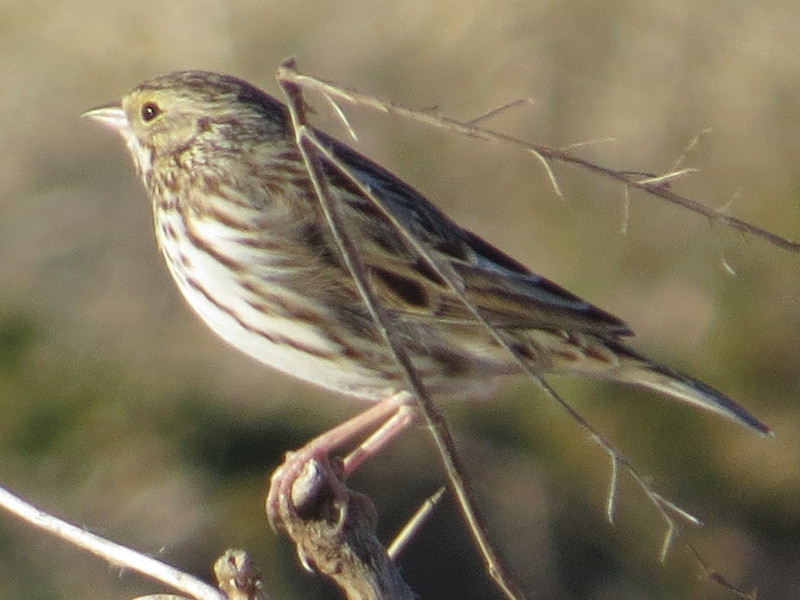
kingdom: Animalia
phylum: Chordata
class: Aves
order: Passeriformes
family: Passerellidae
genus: Passerculus
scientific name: Passerculus sandwichensis
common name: Savannah sparrow
